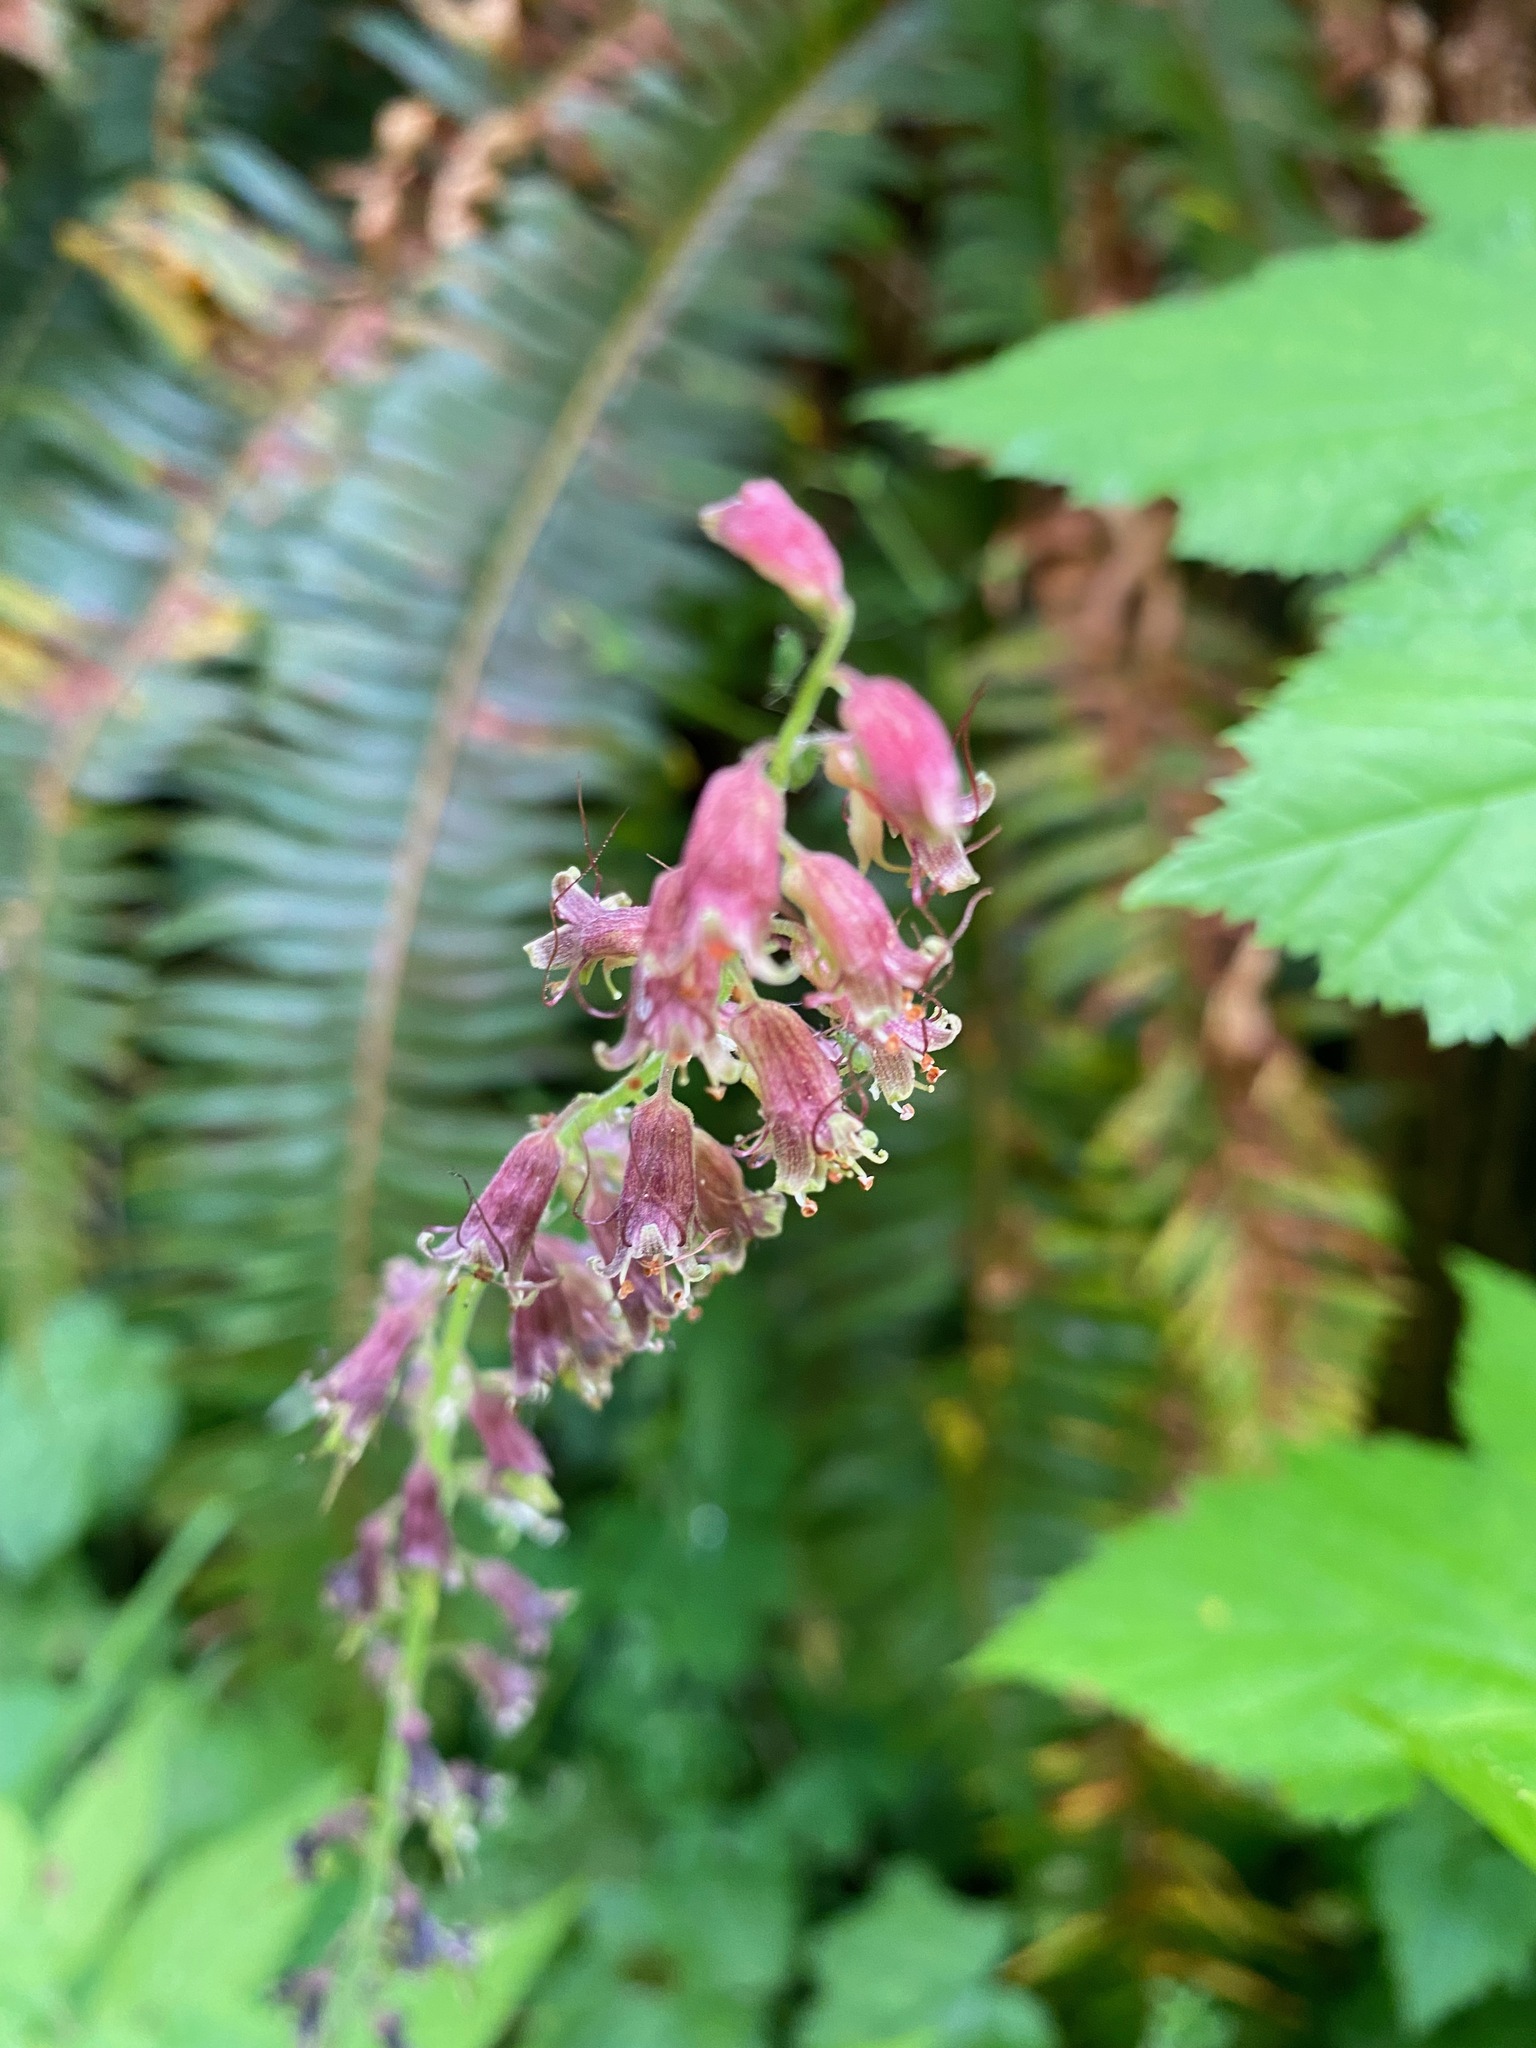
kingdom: Plantae
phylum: Tracheophyta
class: Magnoliopsida
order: Saxifragales
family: Saxifragaceae
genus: Tolmiea
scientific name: Tolmiea menziesii
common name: Pick-a-back-plant
